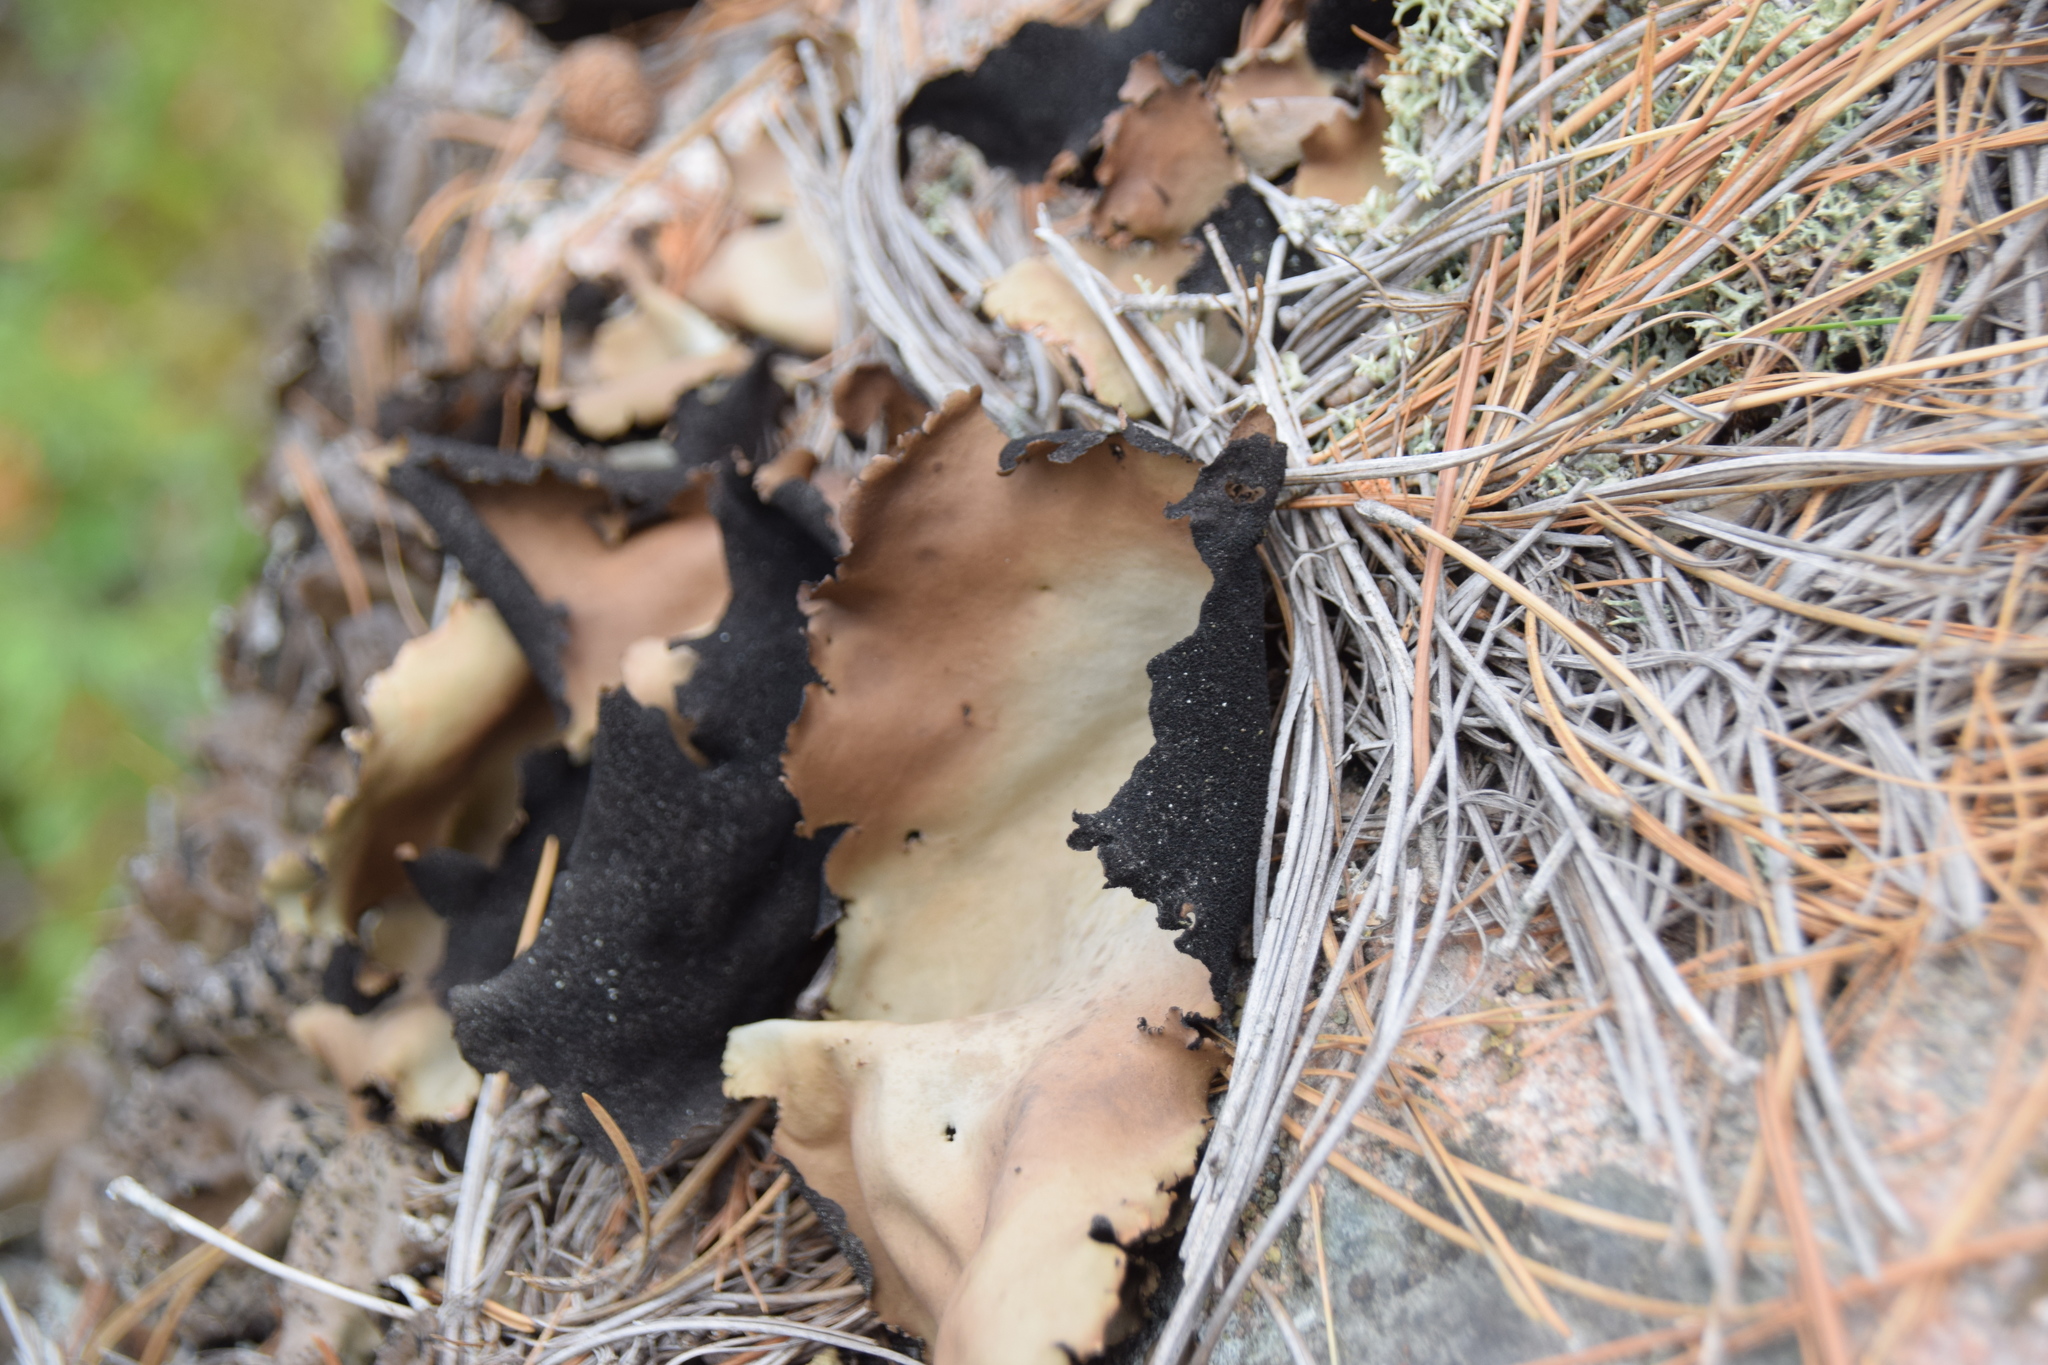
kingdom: Fungi
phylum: Ascomycota
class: Lecanoromycetes
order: Umbilicariales
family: Umbilicariaceae
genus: Umbilicaria
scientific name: Umbilicaria mammulata
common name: Smooth rock tripe
